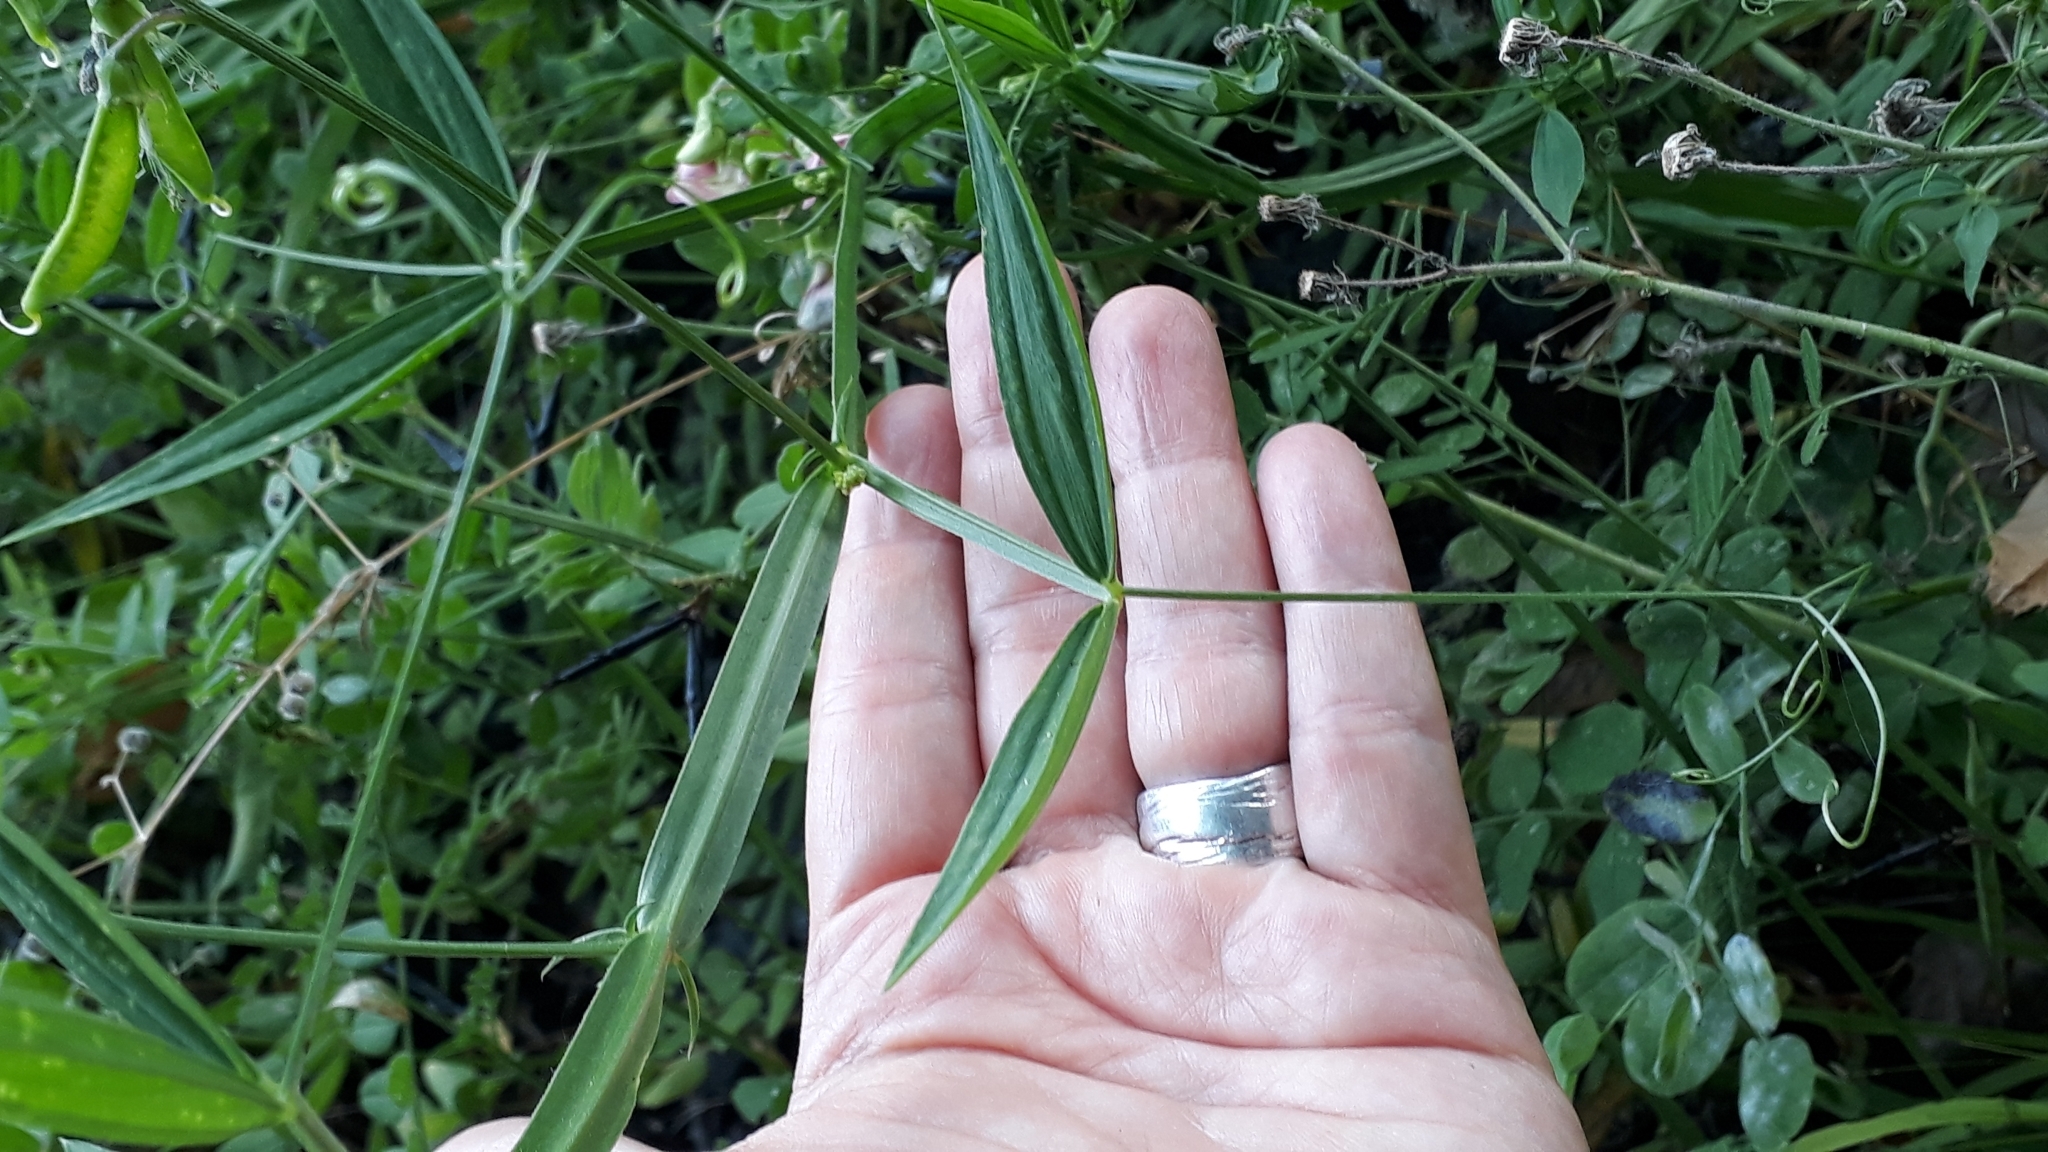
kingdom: Plantae
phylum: Tracheophyta
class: Magnoliopsida
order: Fabales
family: Fabaceae
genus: Lathyrus
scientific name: Lathyrus sylvestris
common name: Flat pea
